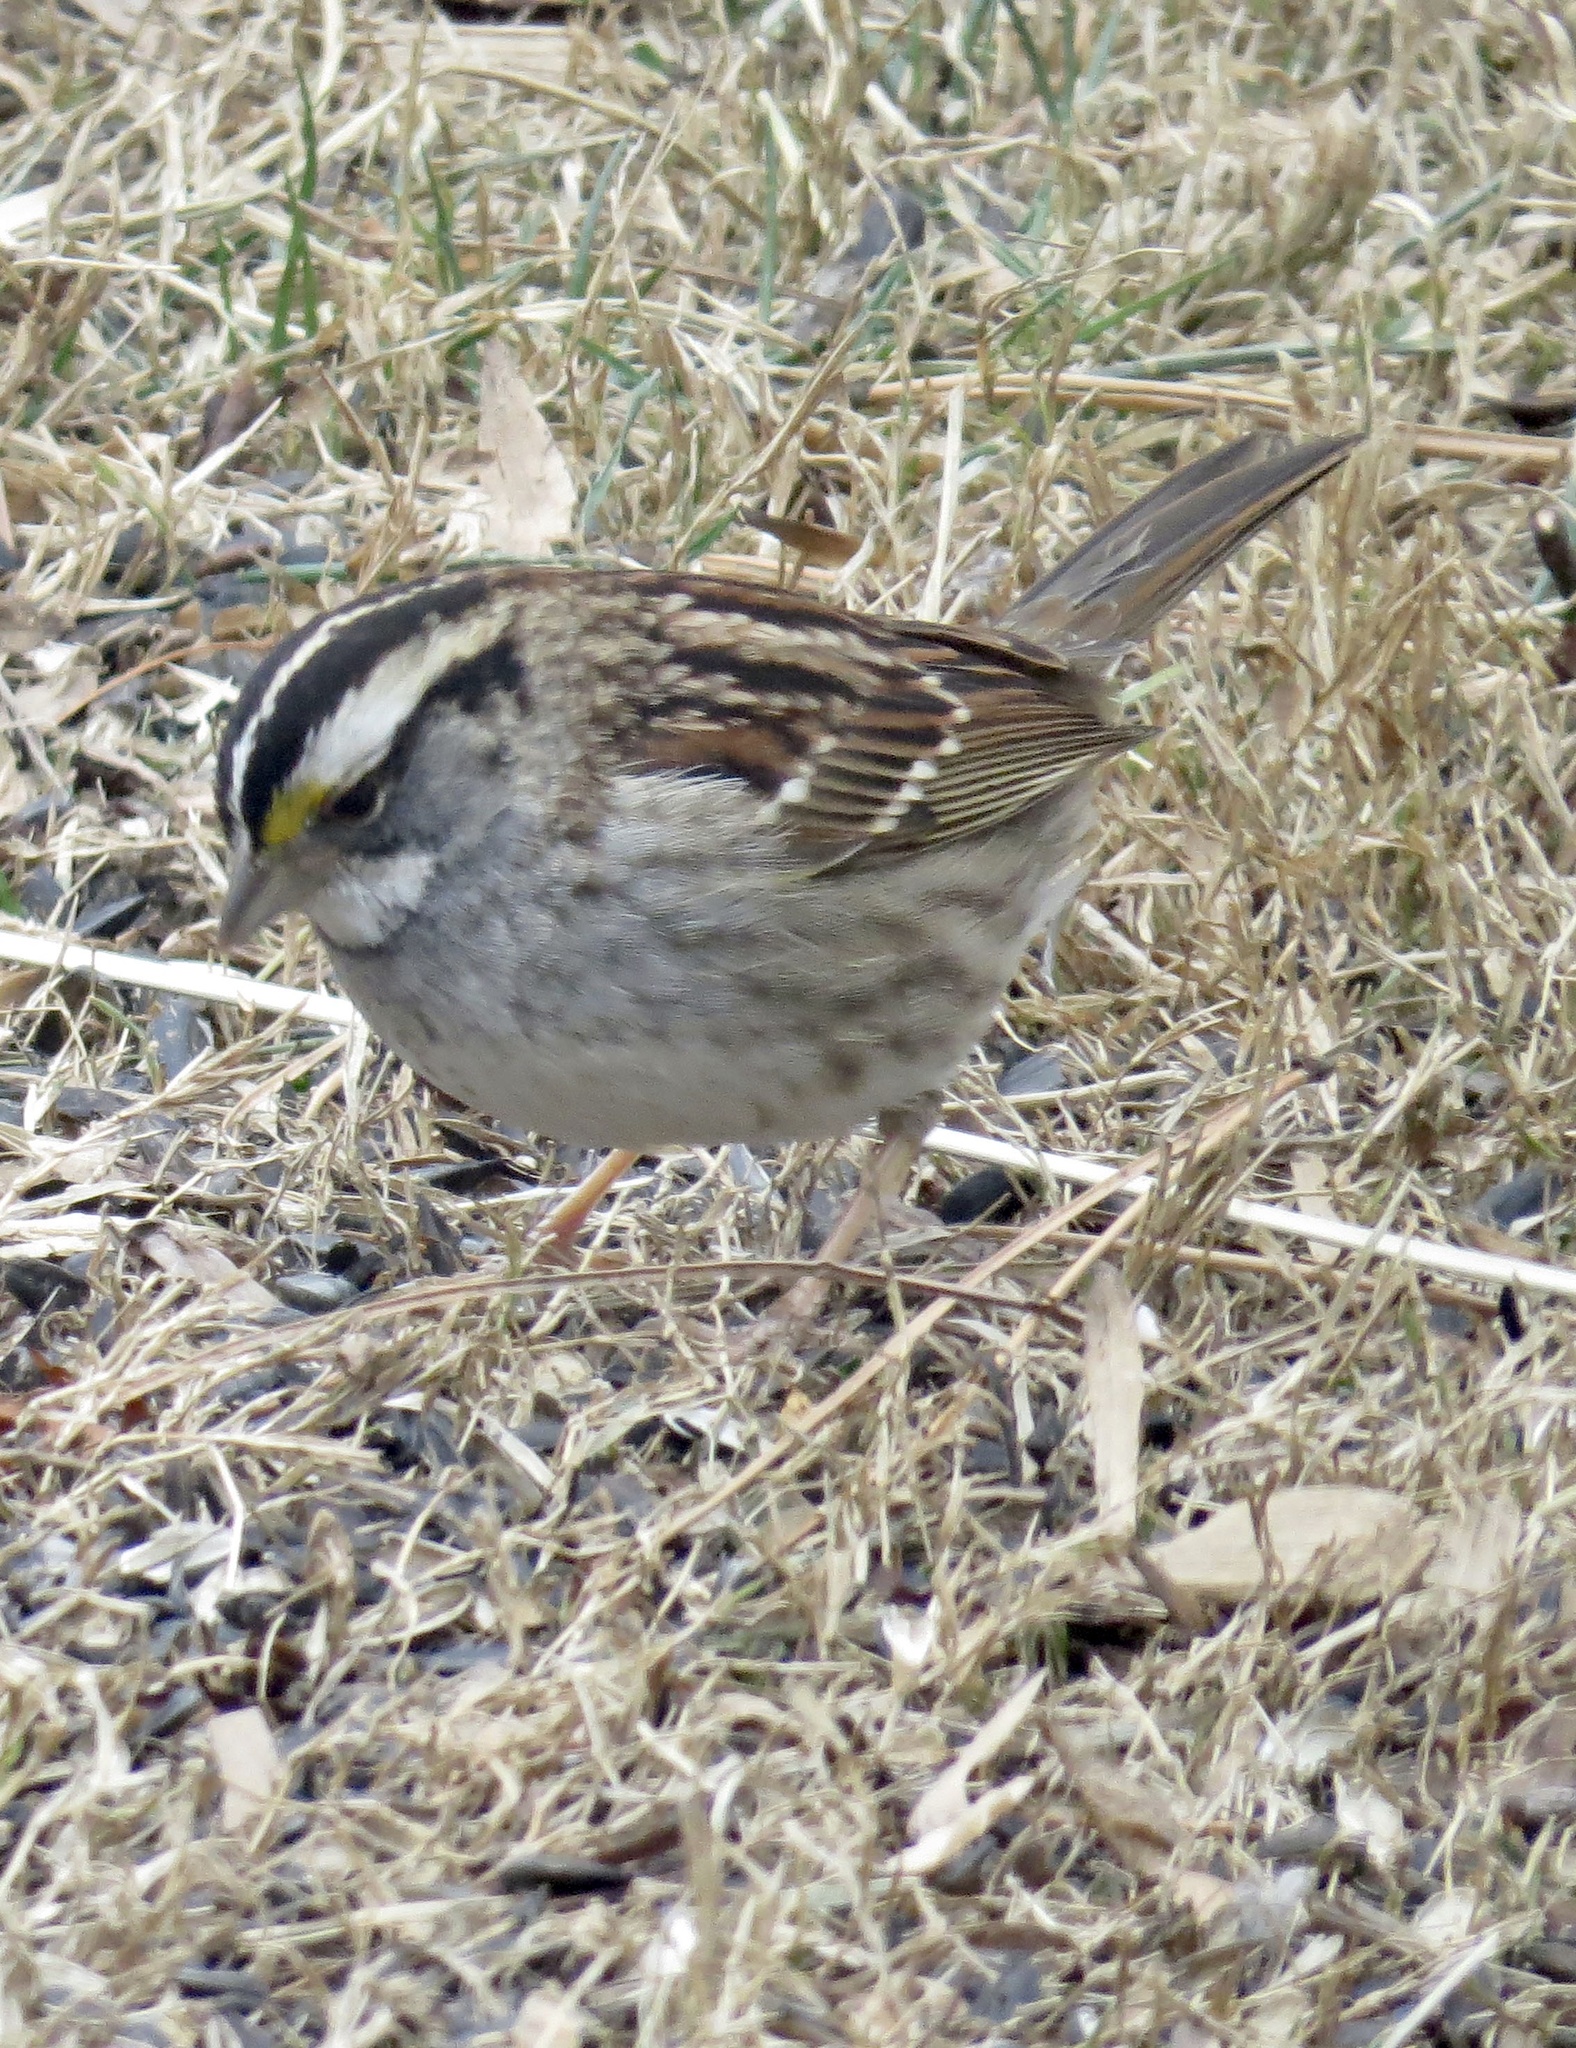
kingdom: Animalia
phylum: Chordata
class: Aves
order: Passeriformes
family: Passerellidae
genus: Zonotrichia
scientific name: Zonotrichia albicollis
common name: White-throated sparrow
